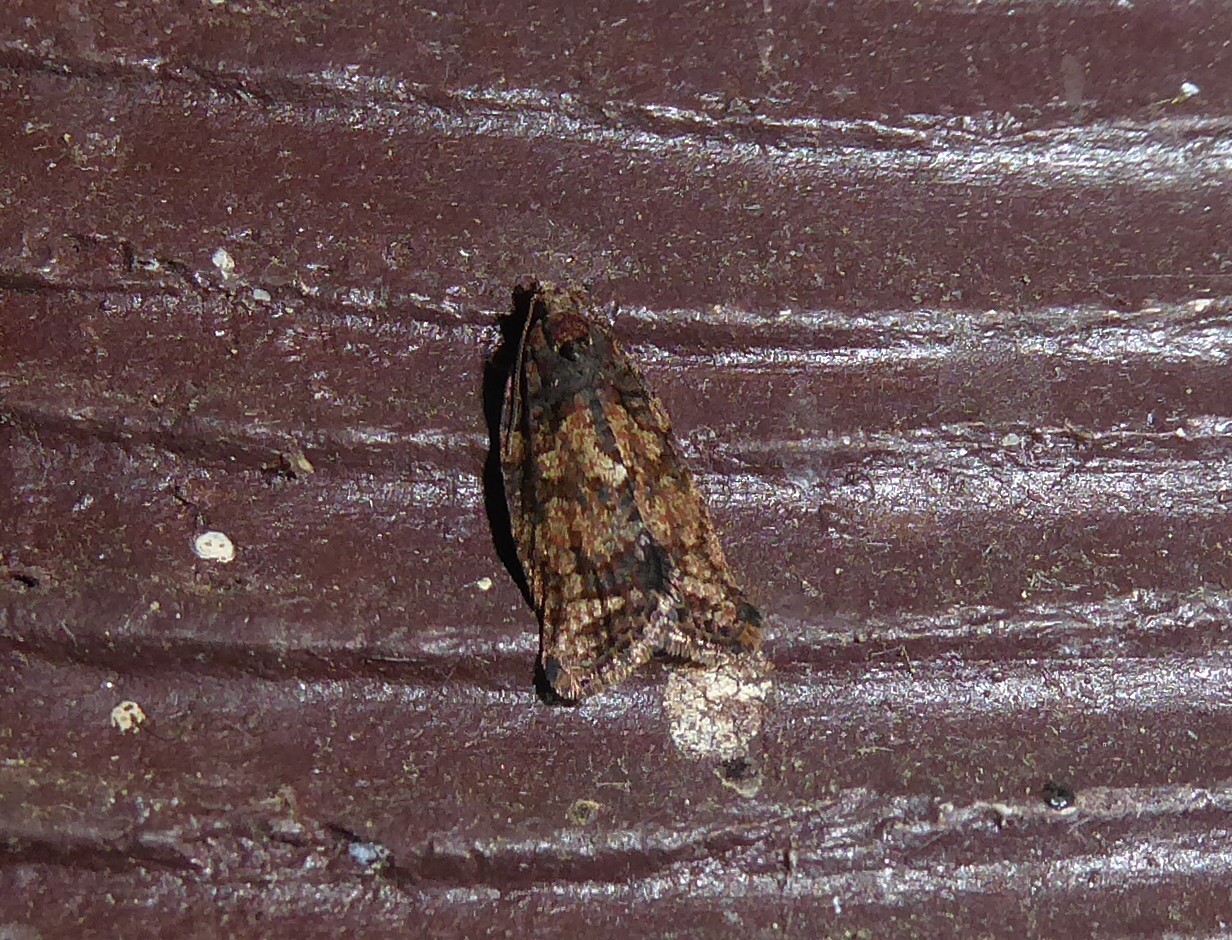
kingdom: Animalia
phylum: Arthropoda
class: Insecta
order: Lepidoptera
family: Tortricidae
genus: Capua
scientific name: Capua intractana
